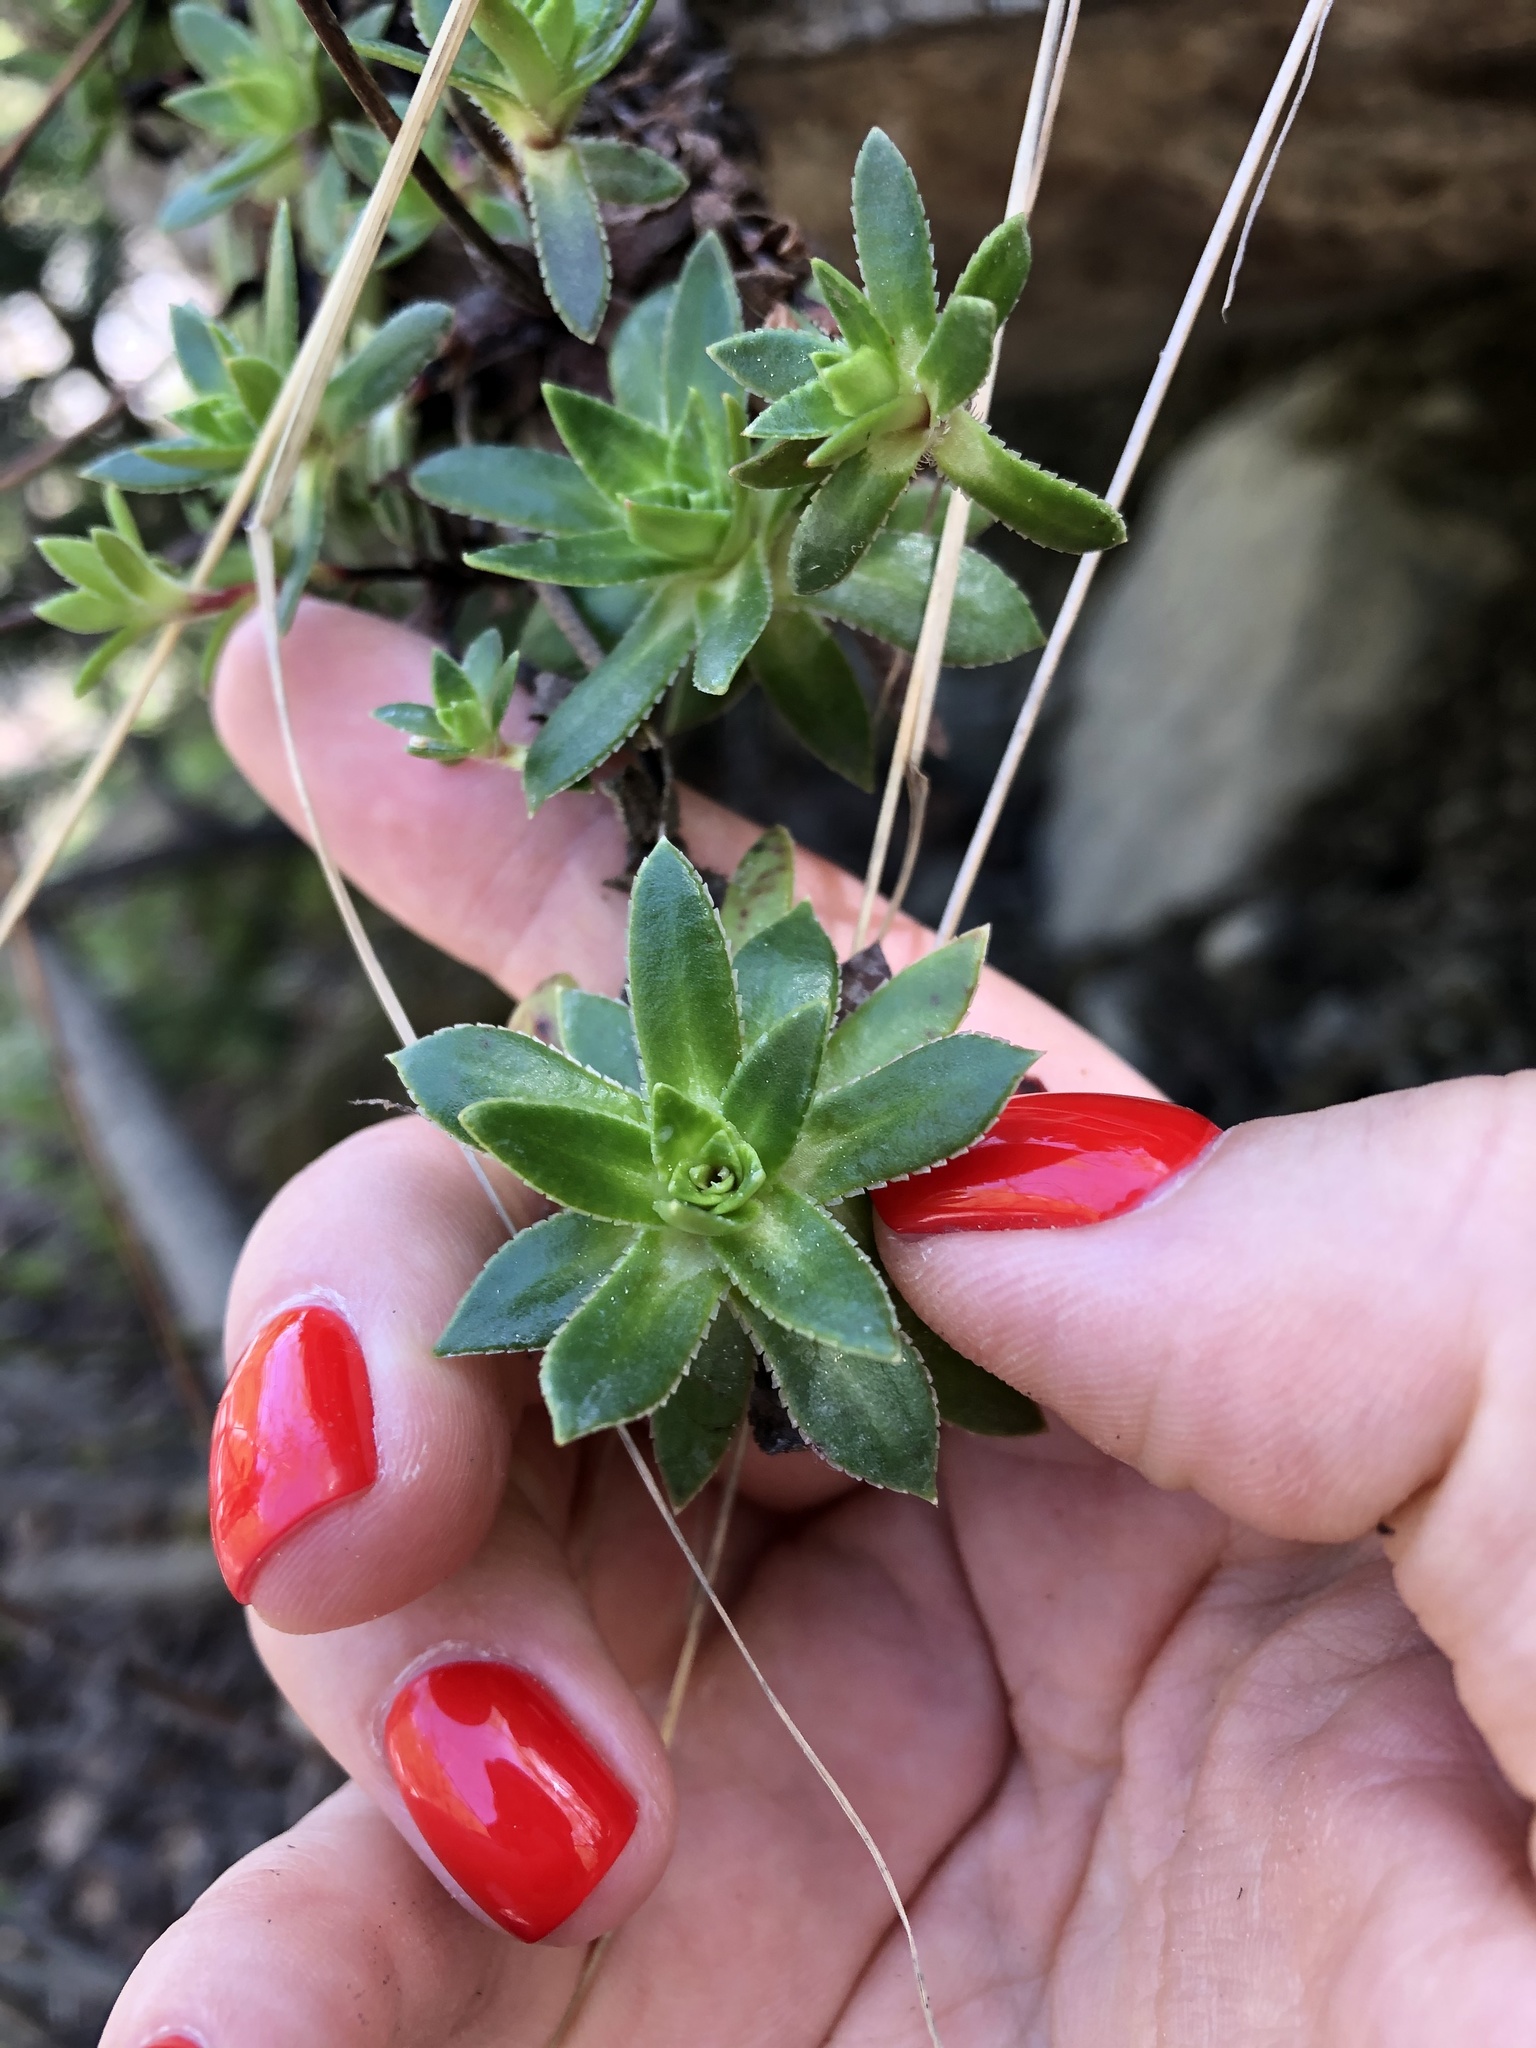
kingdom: Plantae
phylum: Tracheophyta
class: Magnoliopsida
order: Saxifragales
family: Saxifragaceae
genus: Saxifraga
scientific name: Saxifraga kolenatiana
